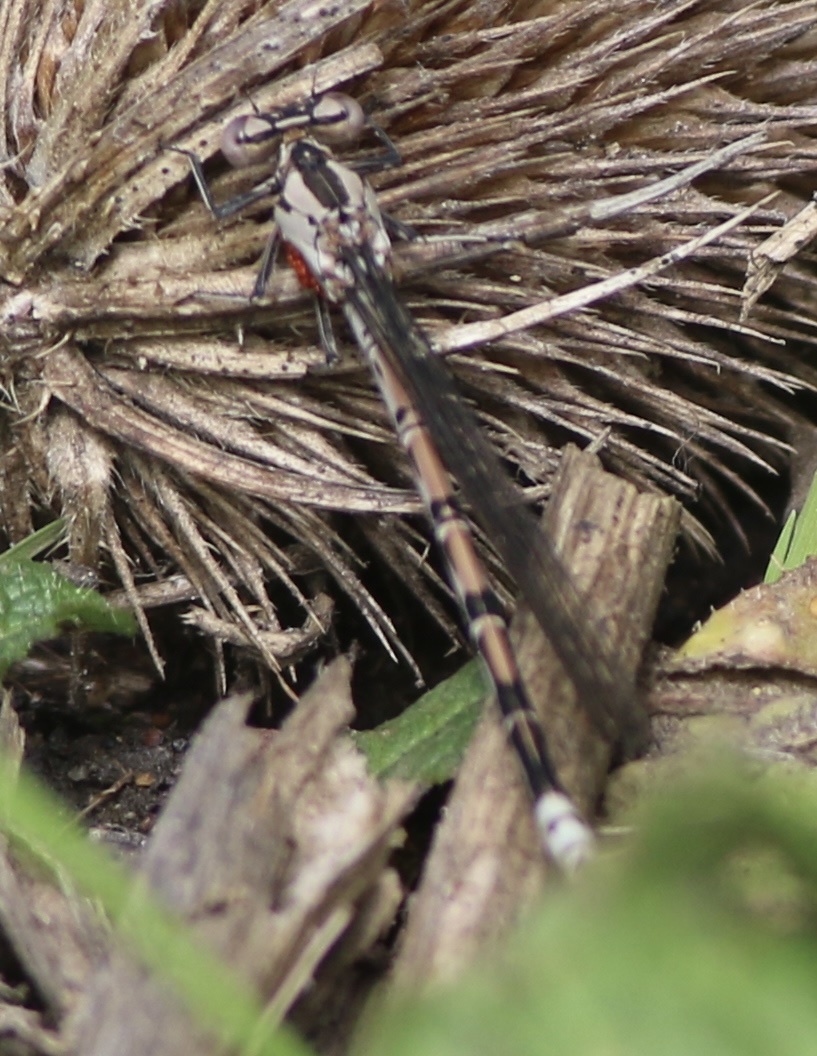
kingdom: Animalia
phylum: Arthropoda
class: Insecta
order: Odonata
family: Coenagrionidae
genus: Argia
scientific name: Argia vivida
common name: Vivid dancer
